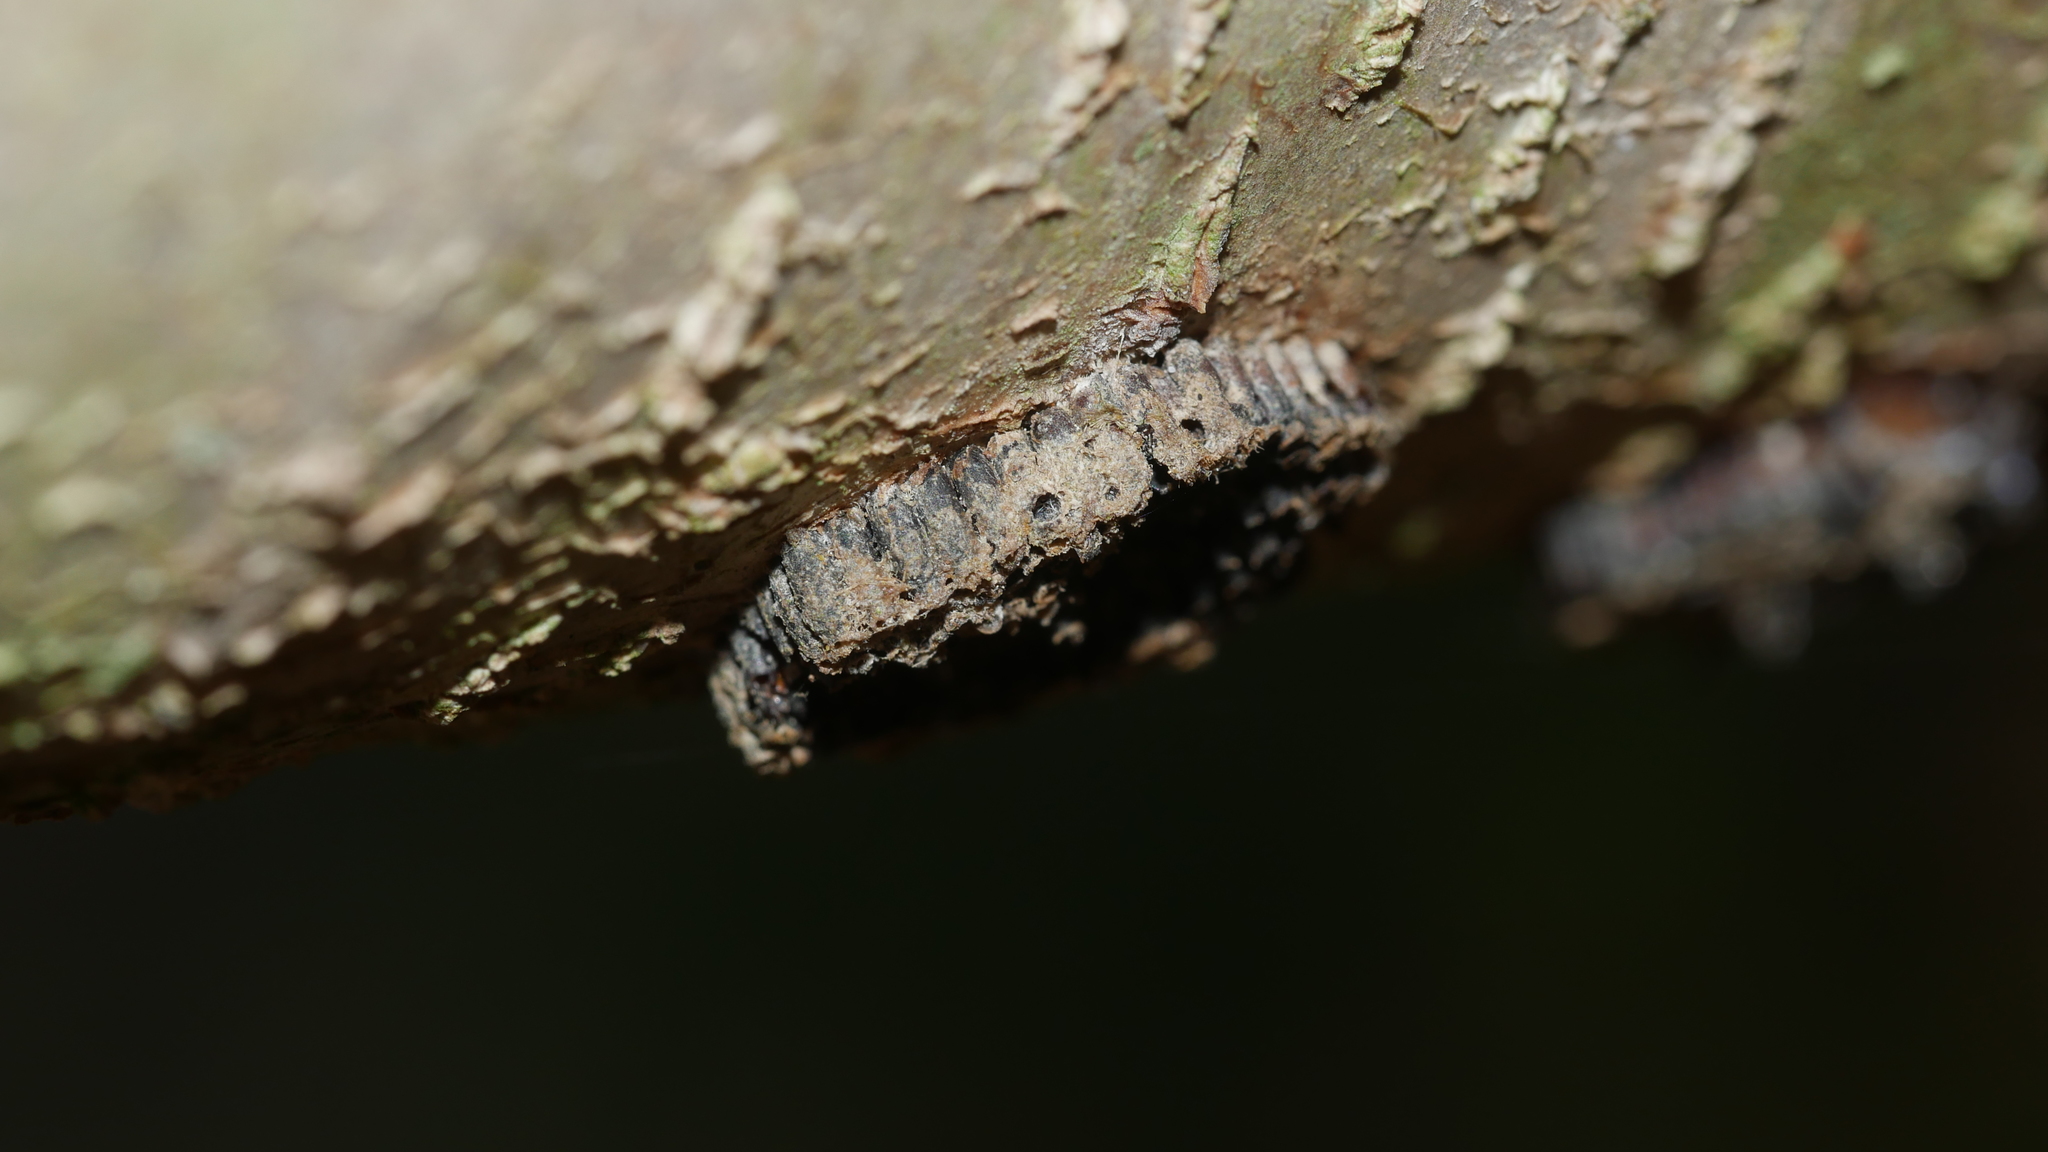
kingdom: Animalia
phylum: Arthropoda
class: Insecta
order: Hemiptera
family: Reduviidae
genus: Arilus
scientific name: Arilus cristatus
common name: North american wheel bug
